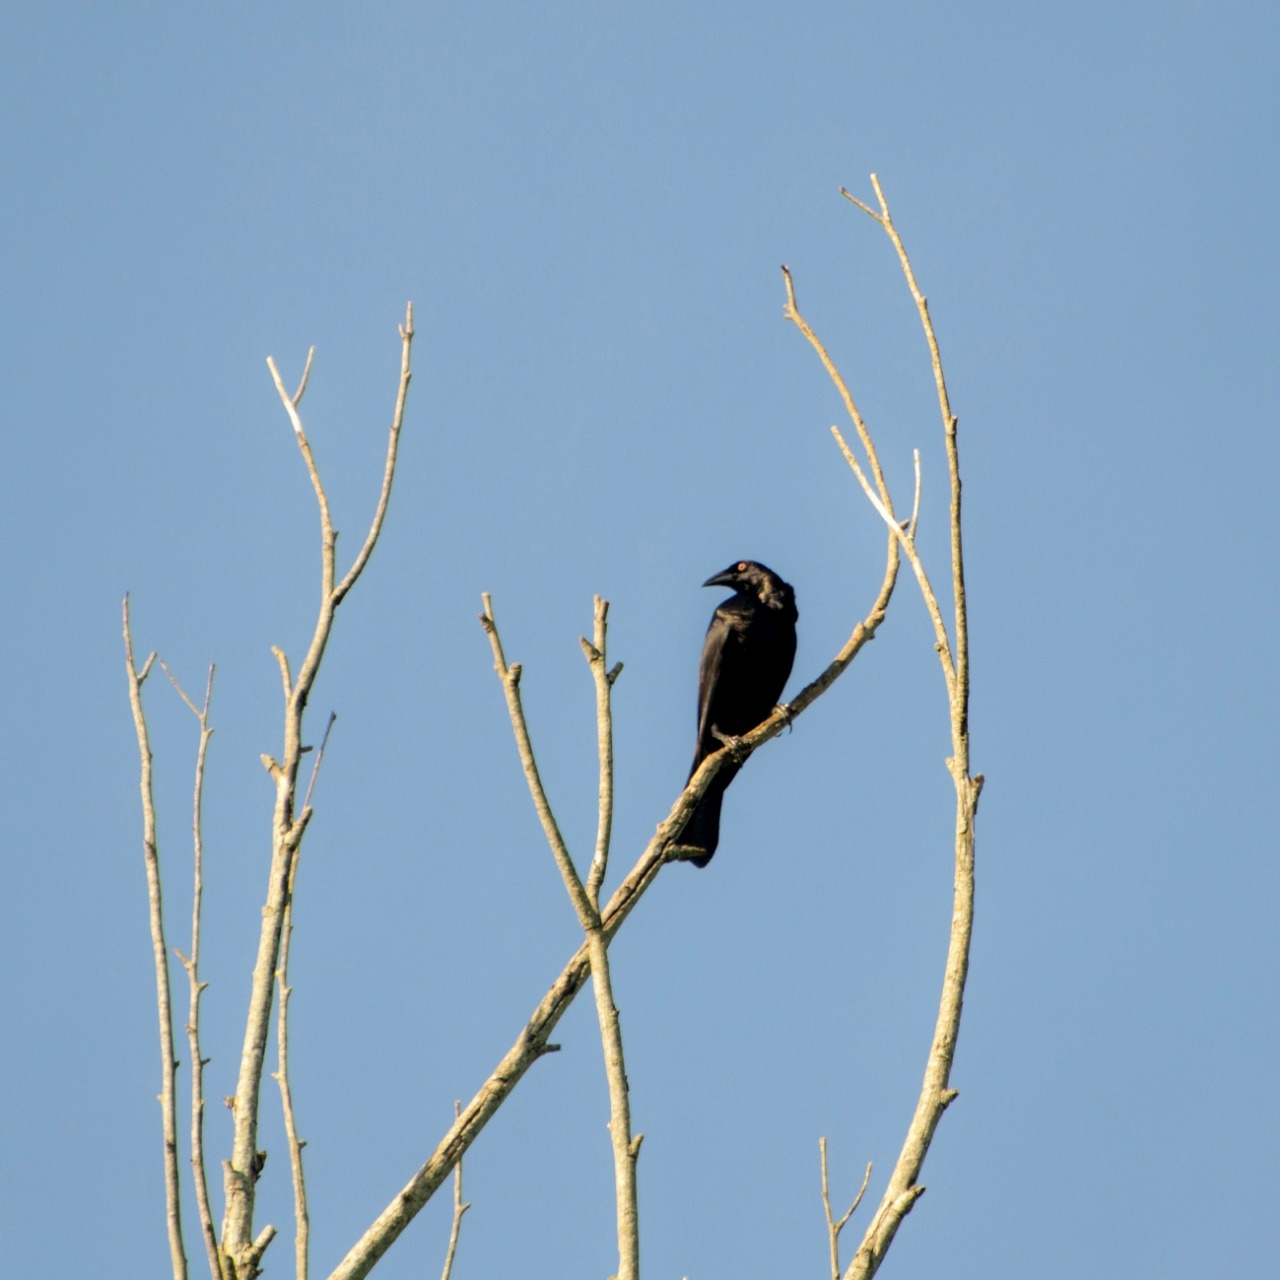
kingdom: Animalia
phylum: Chordata
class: Aves
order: Passeriformes
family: Icteridae
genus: Molothrus
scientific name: Molothrus oryzivorus
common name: Giant cowbird
